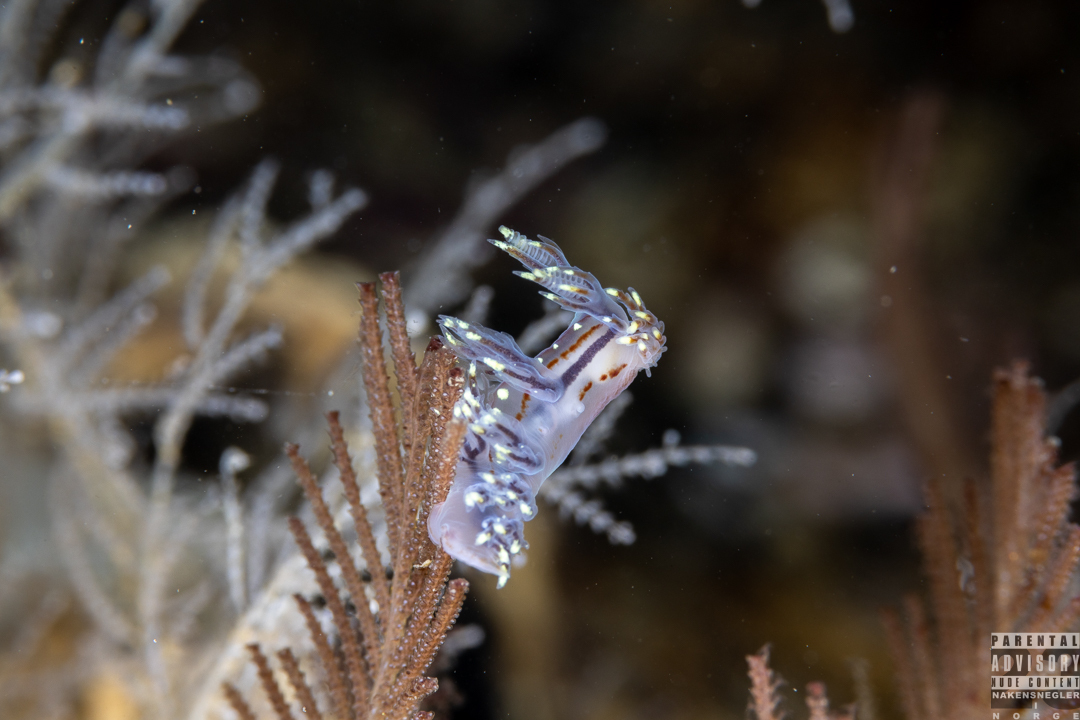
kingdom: Animalia
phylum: Mollusca
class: Gastropoda
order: Nudibranchia
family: Dendronotidae
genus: Dendronotus
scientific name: Dendronotus yrjargul
